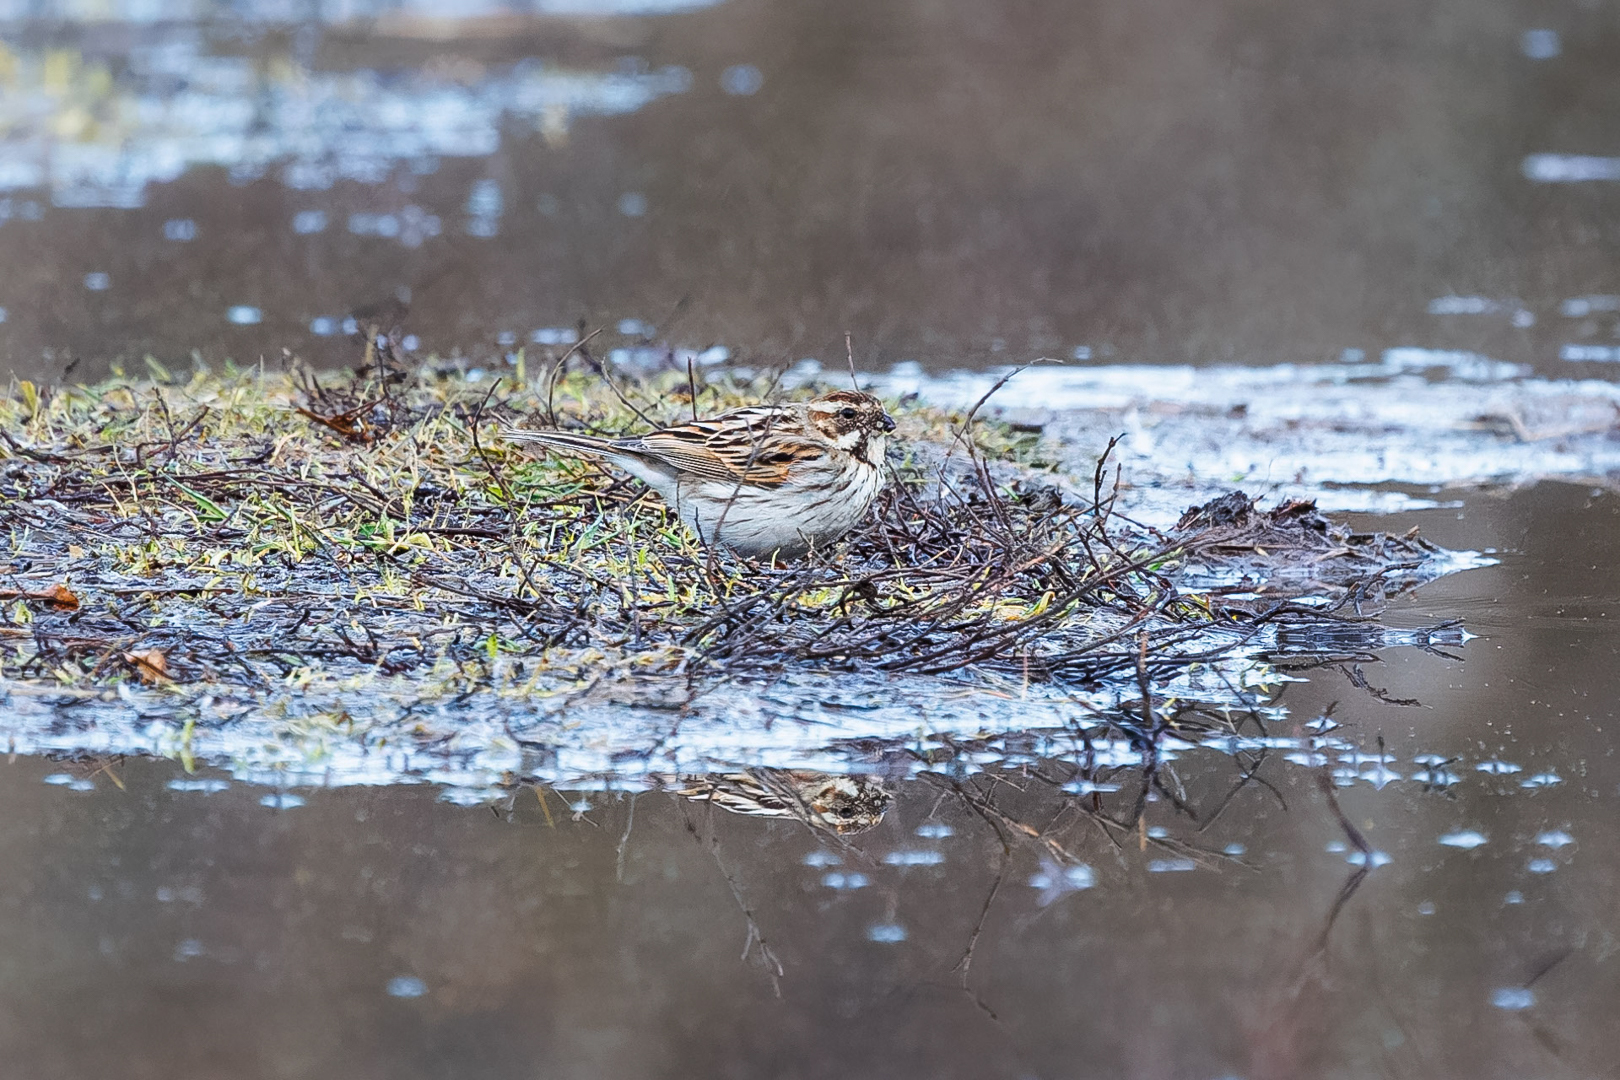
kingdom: Animalia
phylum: Chordata
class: Aves
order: Passeriformes
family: Emberizidae
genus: Emberiza
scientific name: Emberiza schoeniclus
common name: Reed bunting
